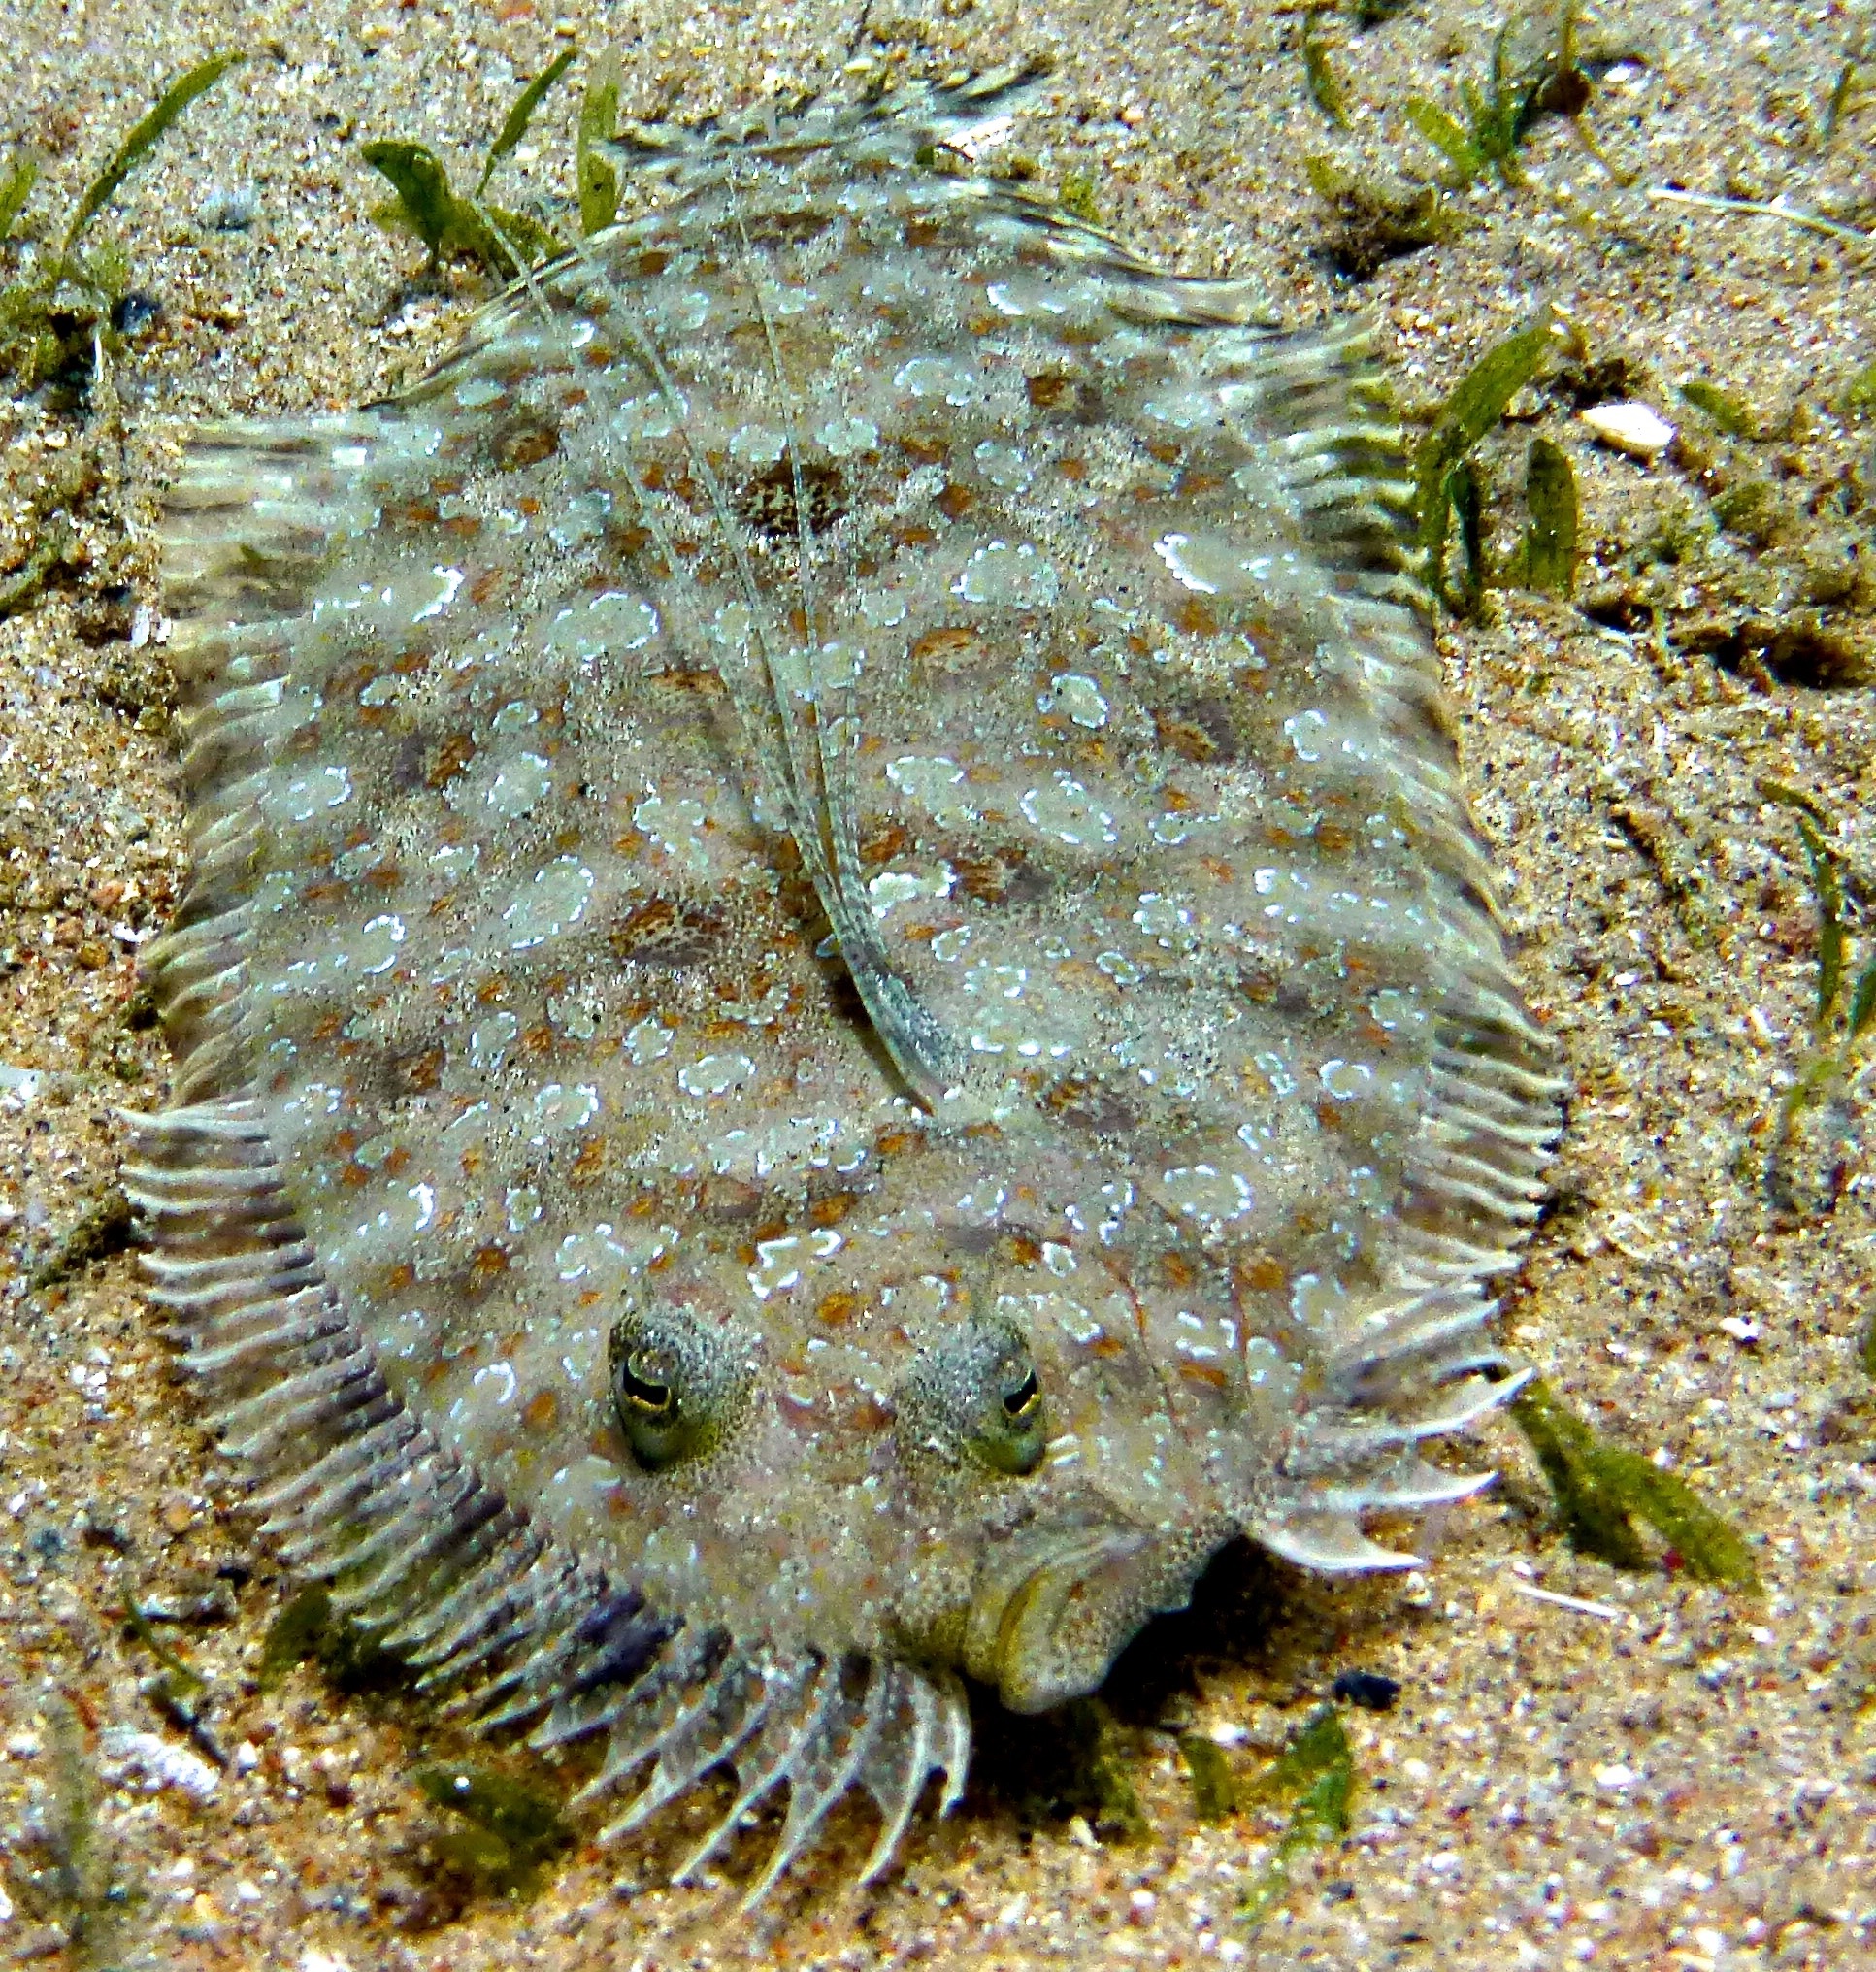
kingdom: Animalia
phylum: Chordata
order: Pleuronectiformes
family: Bothidae
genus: Bothus
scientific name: Bothus pantherinus
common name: Leopard flounder
